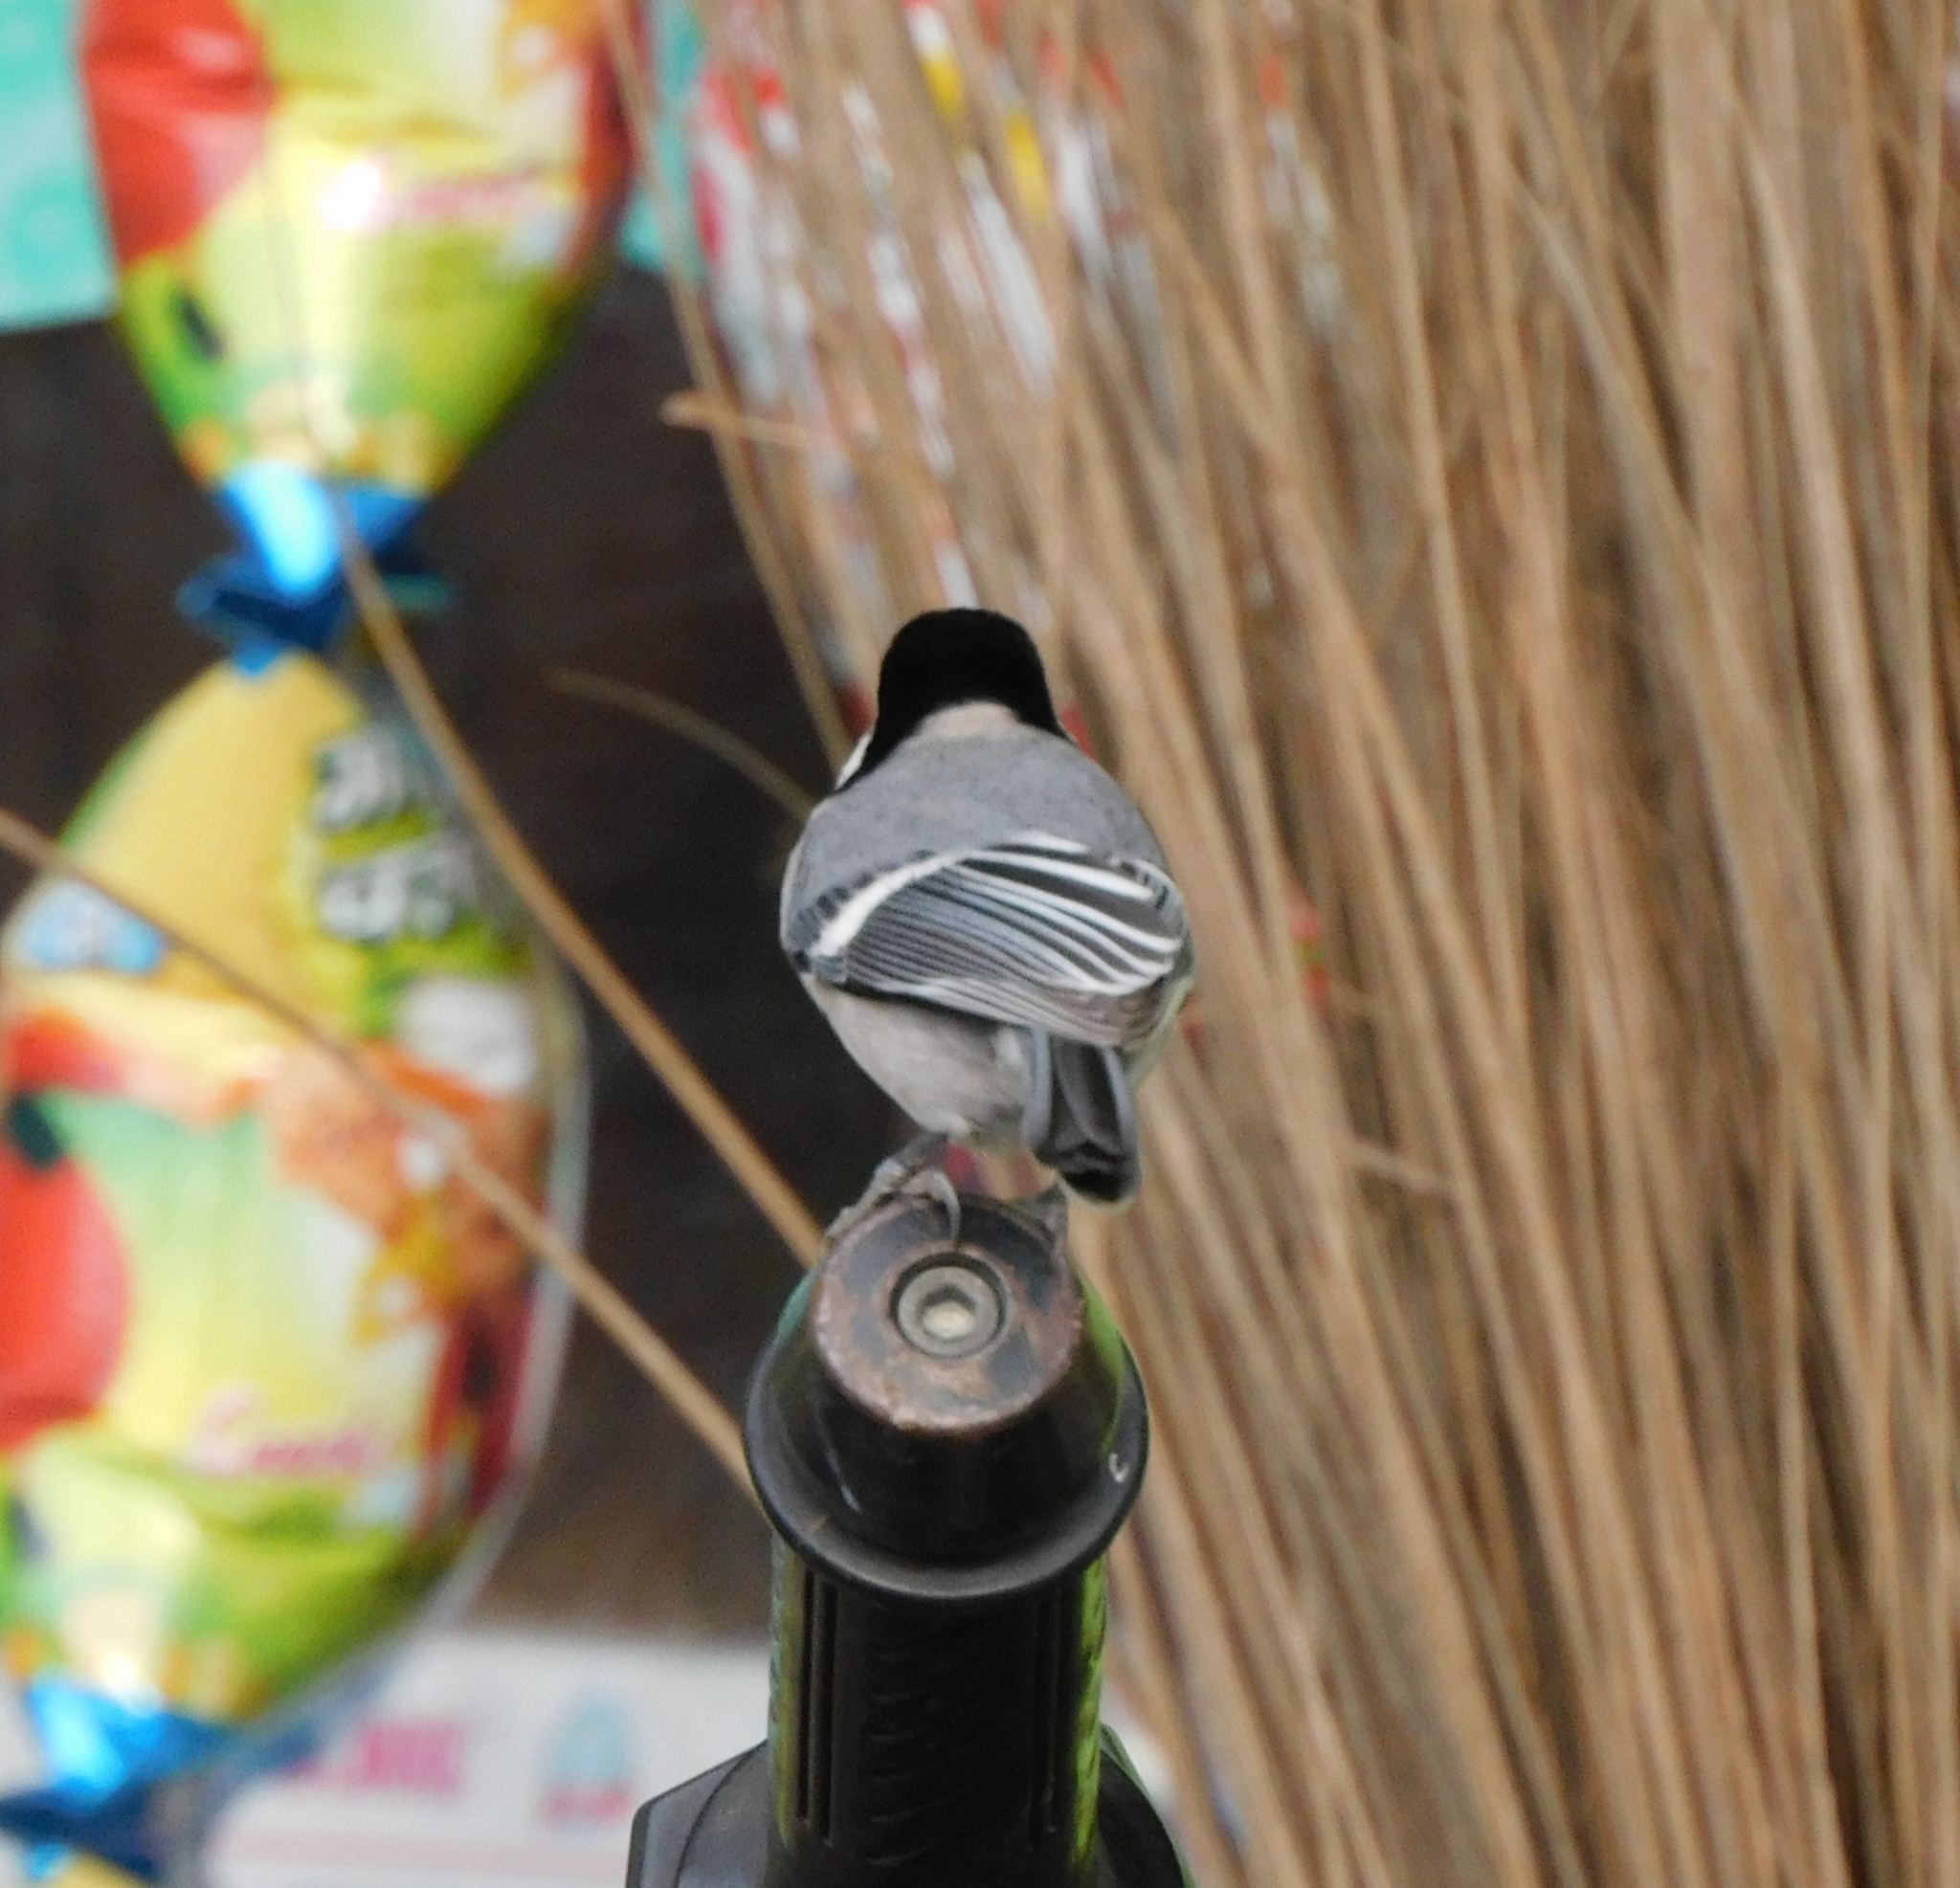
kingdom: Animalia
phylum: Chordata
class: Aves
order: Passeriformes
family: Paridae
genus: Parus
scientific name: Parus cinereus
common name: Cinereous tit
